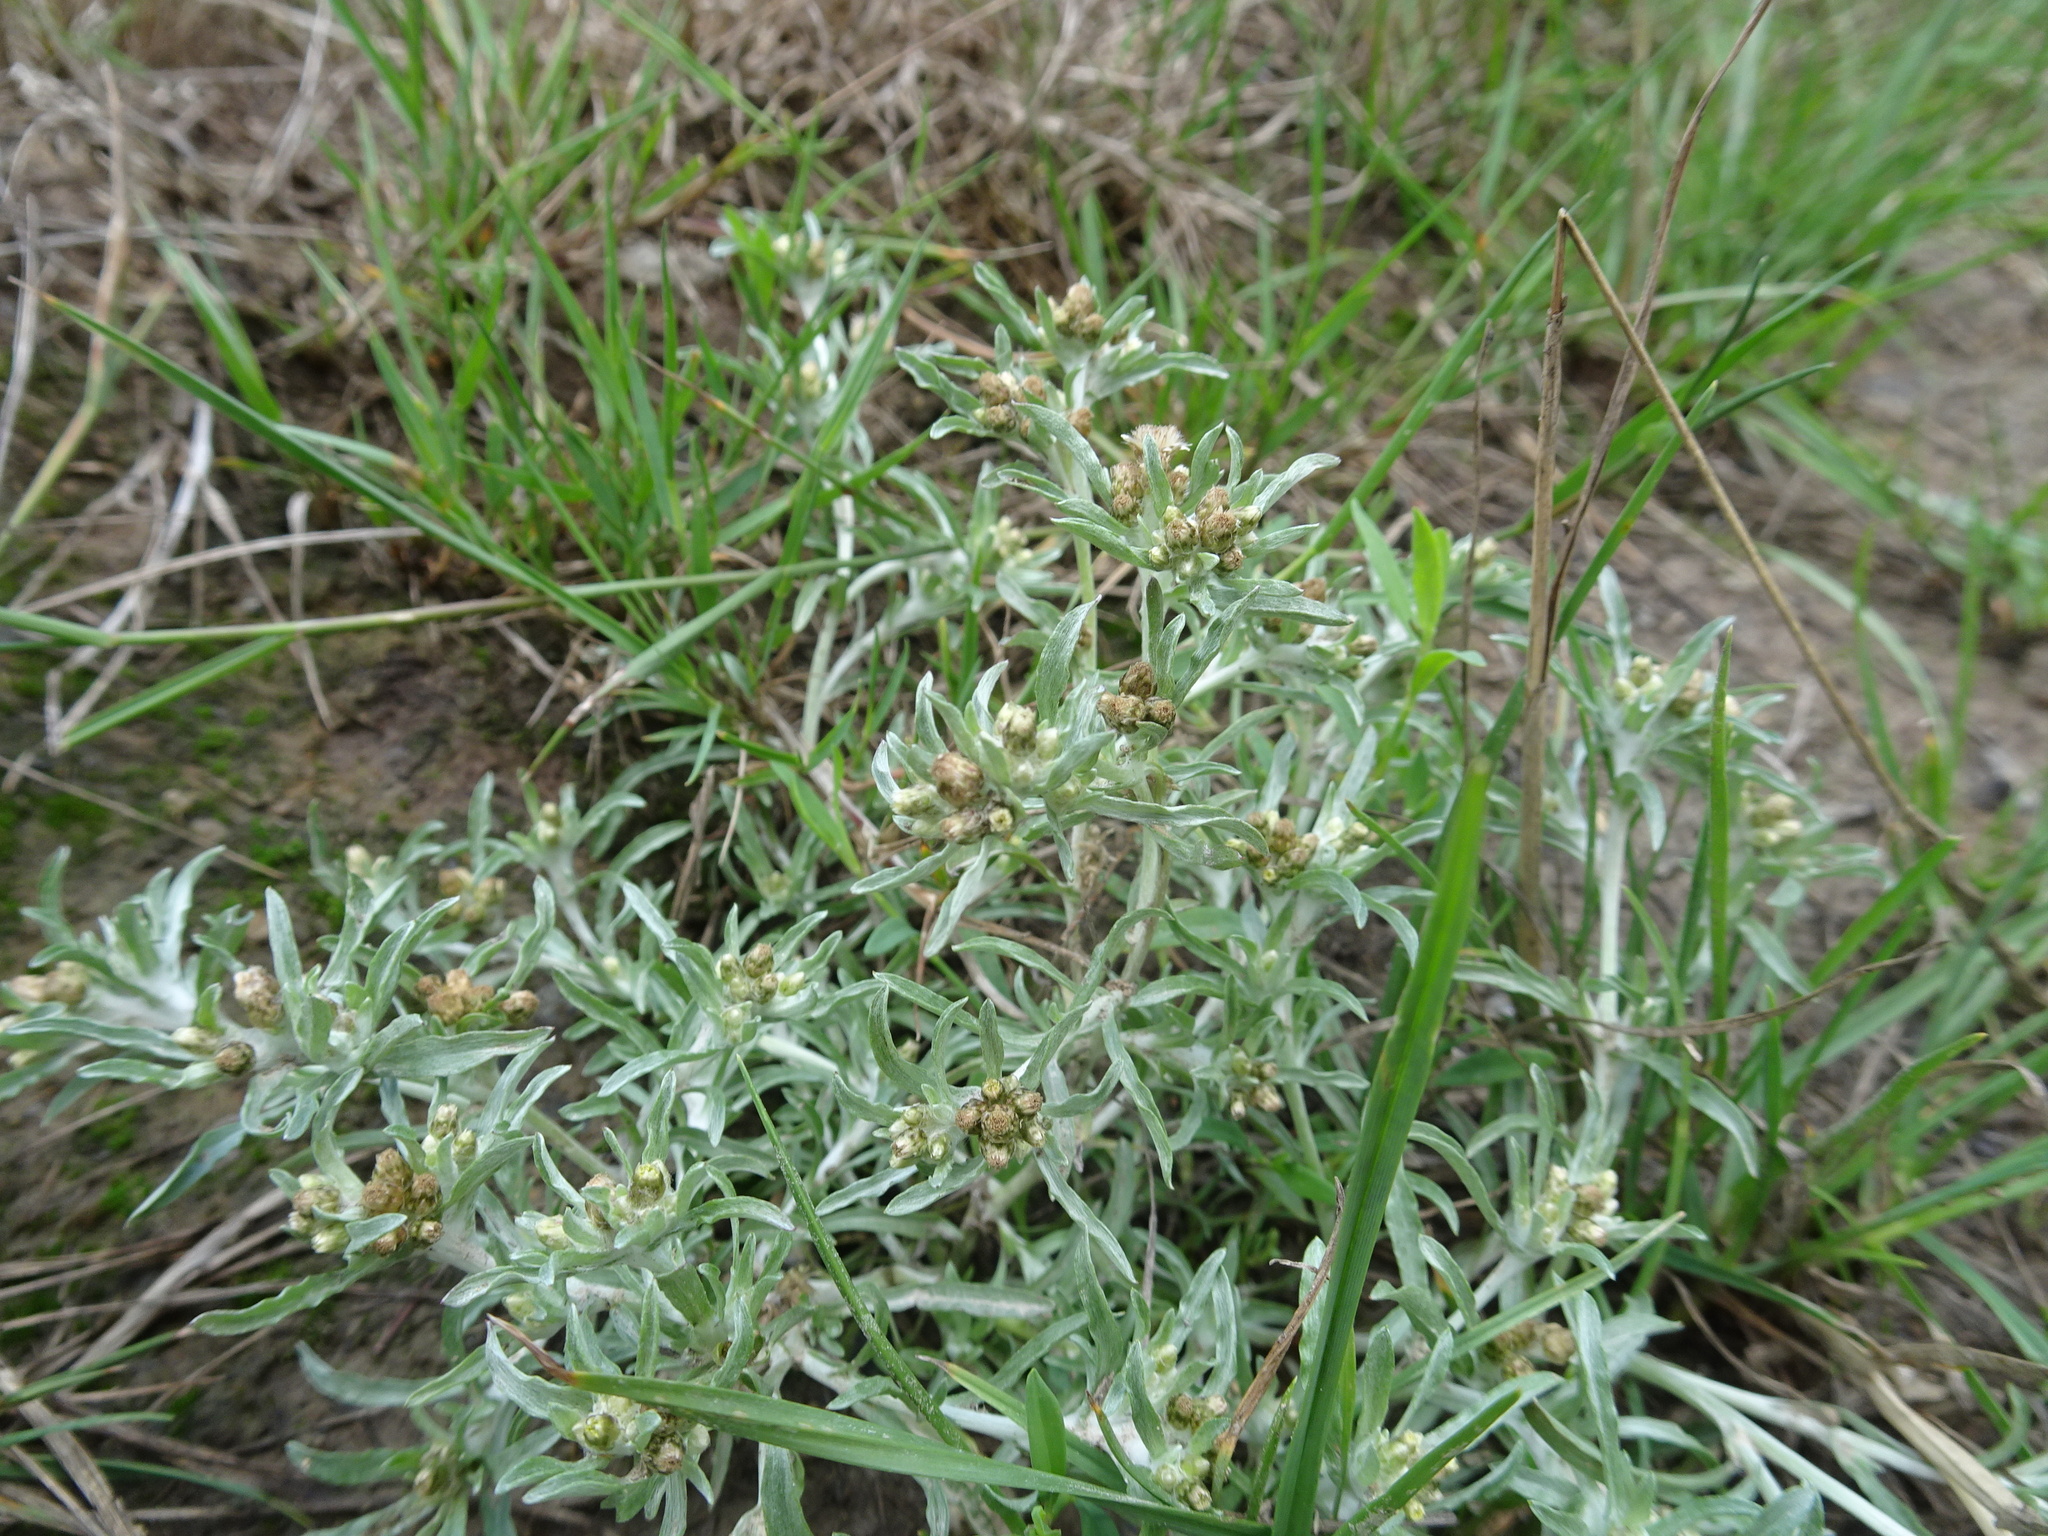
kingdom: Plantae
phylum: Tracheophyta
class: Magnoliopsida
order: Asterales
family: Asteraceae
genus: Gnaphalium
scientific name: Gnaphalium uliginosum
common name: Marsh cudweed
